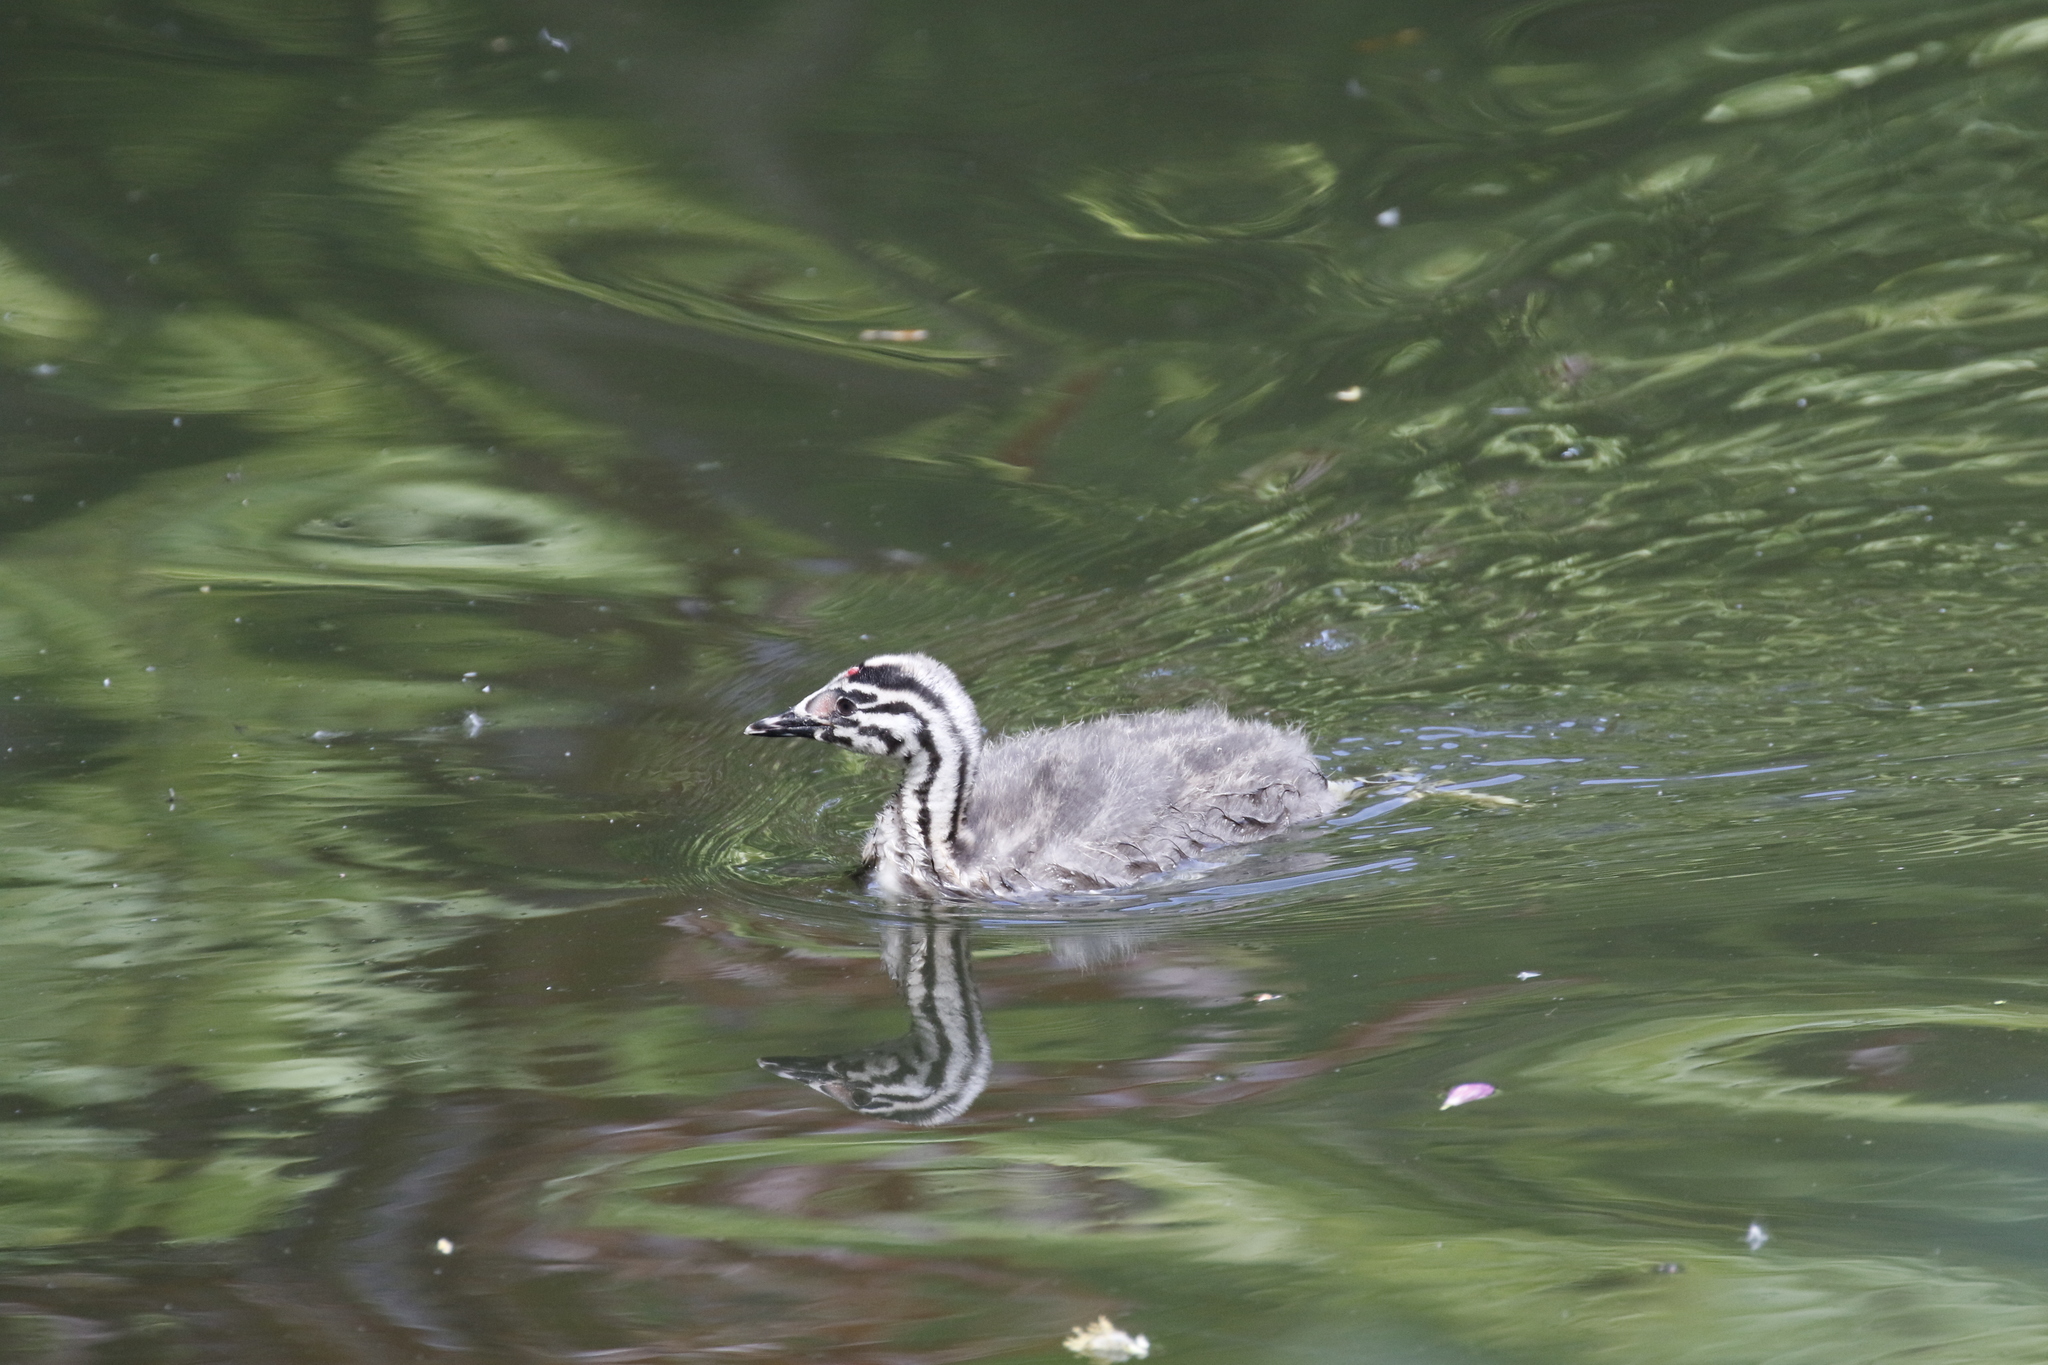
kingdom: Animalia
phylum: Chordata
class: Aves
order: Podicipediformes
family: Podicipedidae
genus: Podiceps
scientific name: Podiceps cristatus
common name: Great crested grebe
